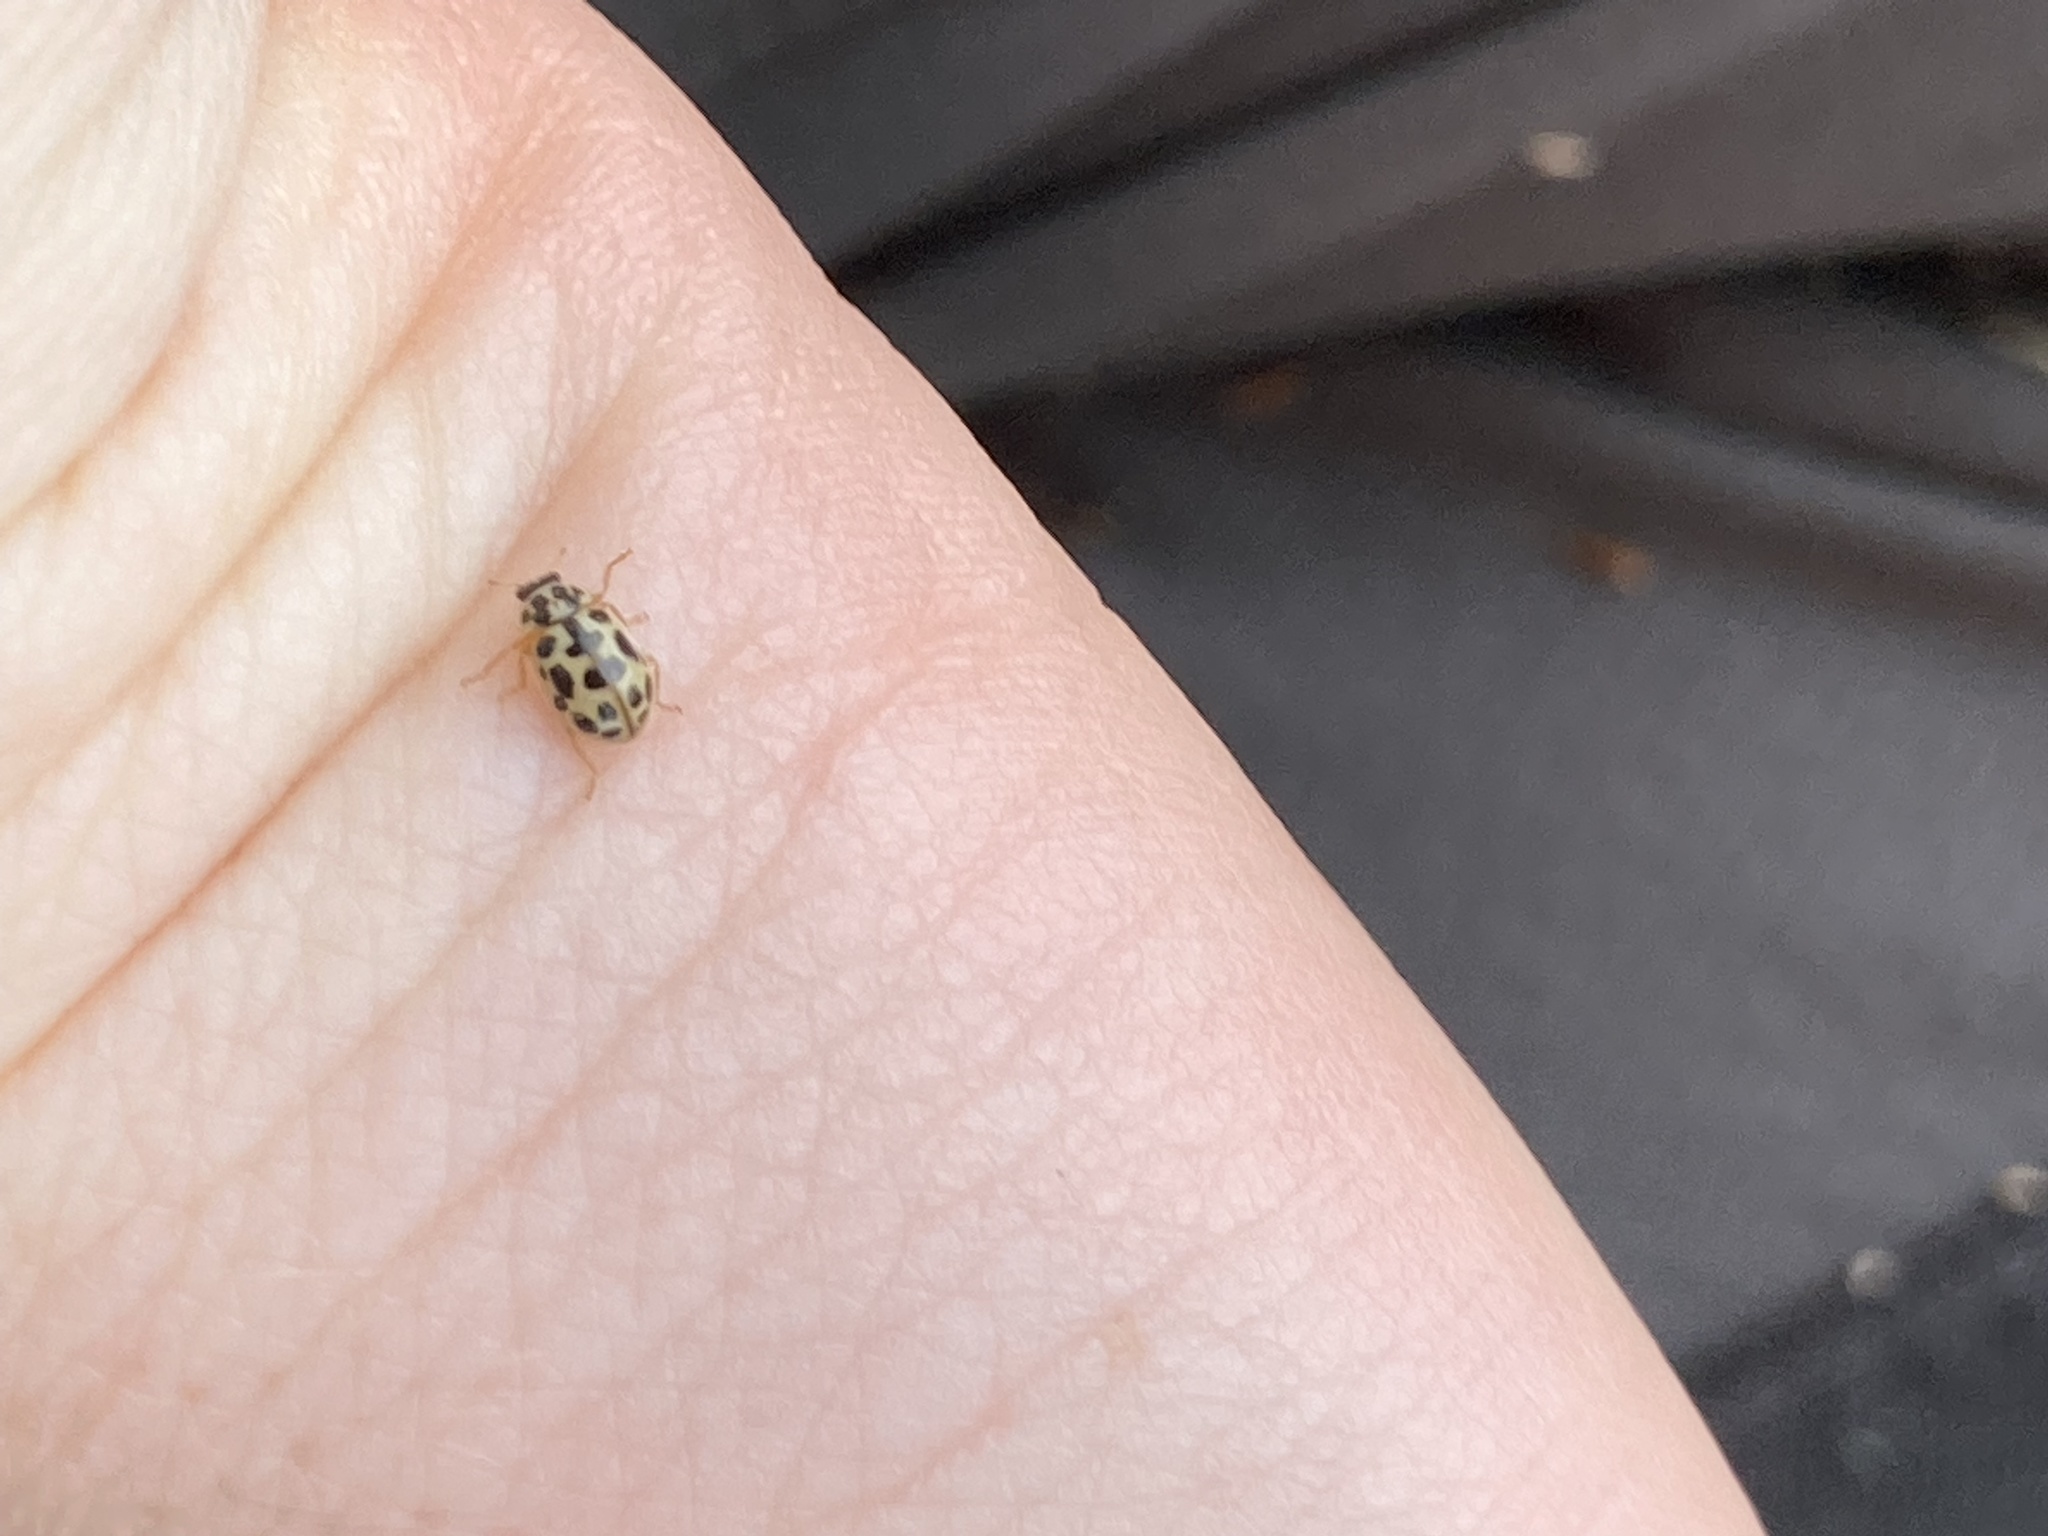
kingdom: Animalia
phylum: Arthropoda
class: Insecta
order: Coleoptera
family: Coccinellidae
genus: Anisosticta
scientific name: Anisosticta bitriangularis
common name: Marsh lady beetle
